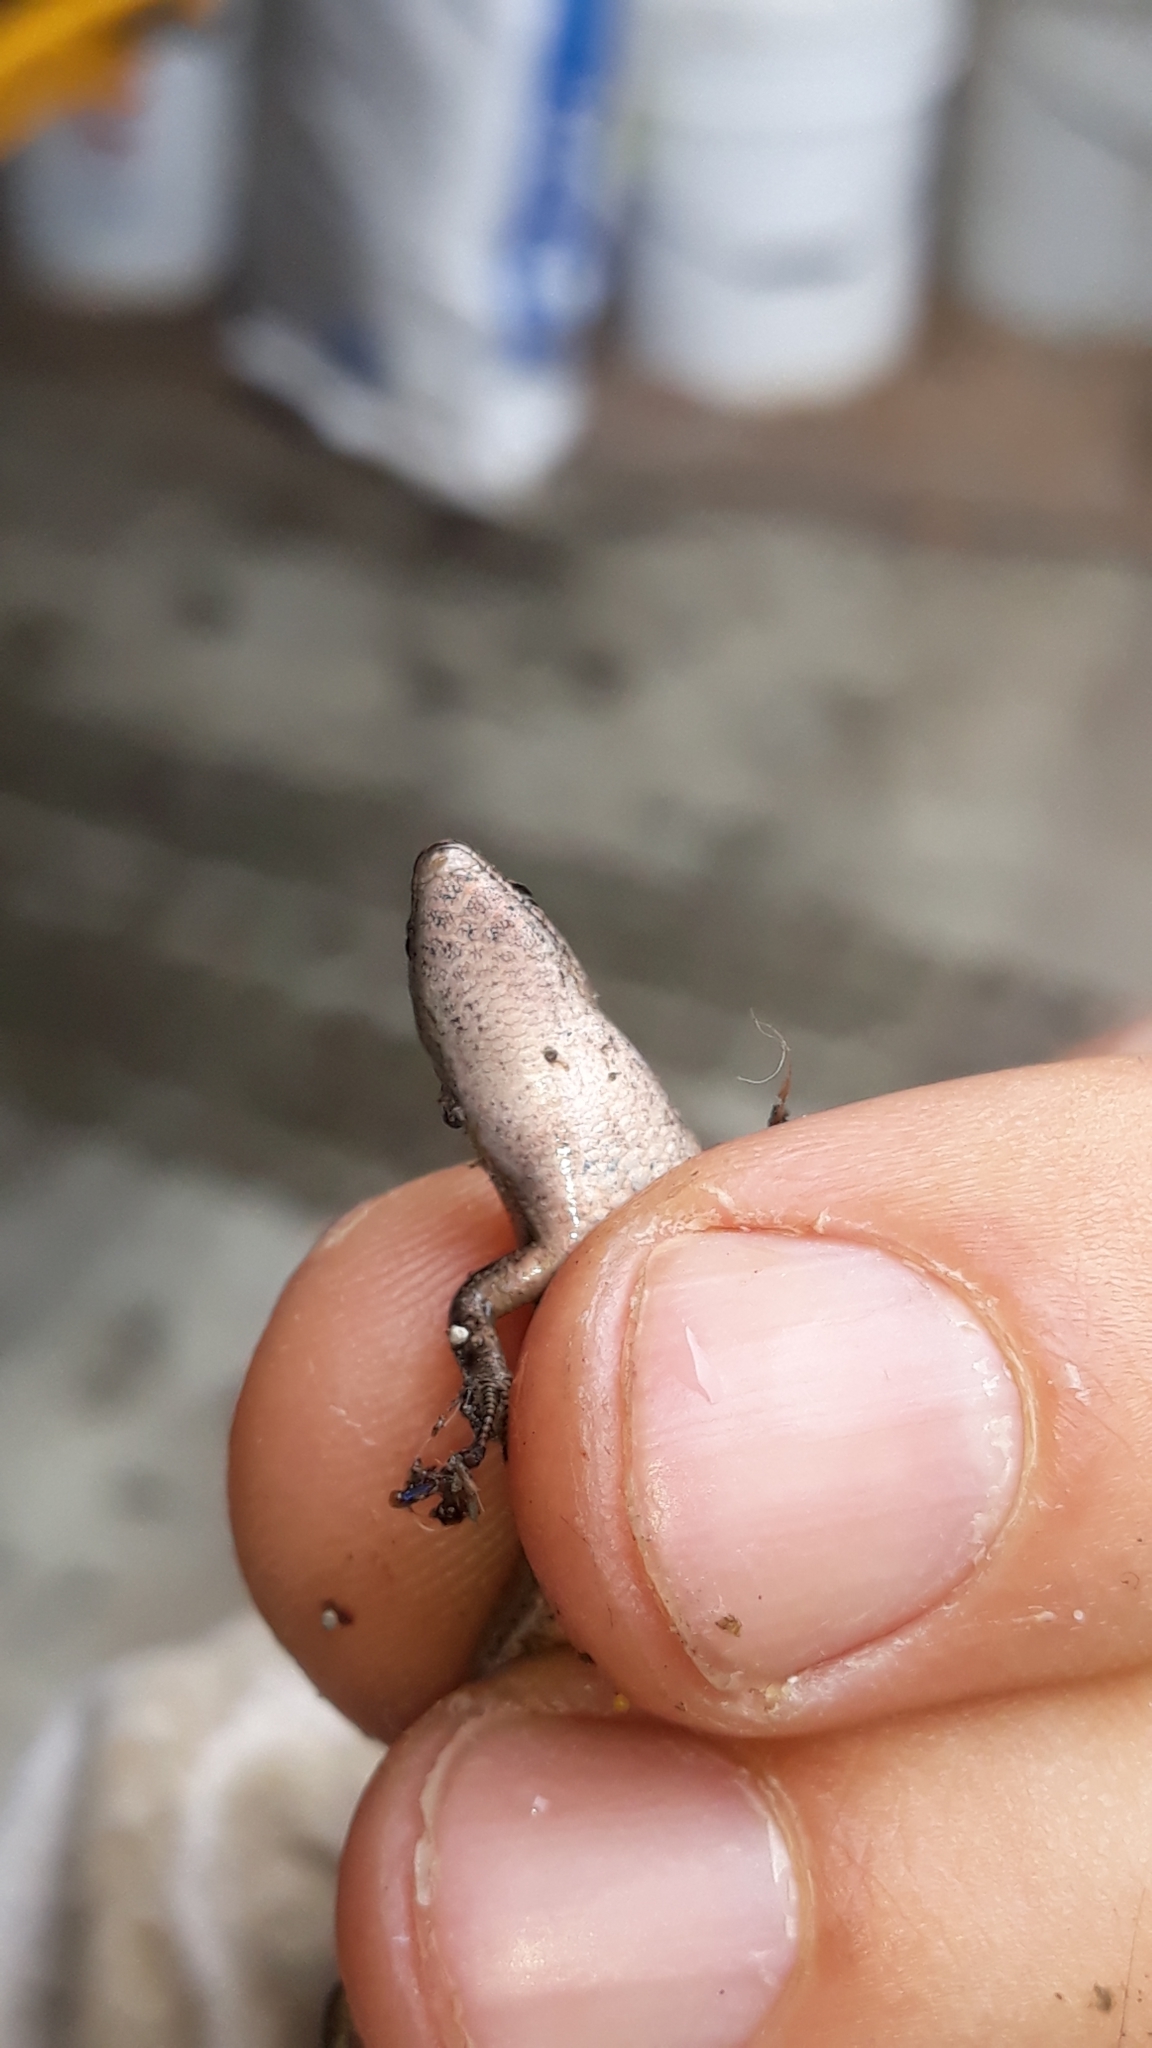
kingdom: Animalia
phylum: Chordata
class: Squamata
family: Scincidae
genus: Lampropholis
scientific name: Lampropholis delicata
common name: Plague skink
